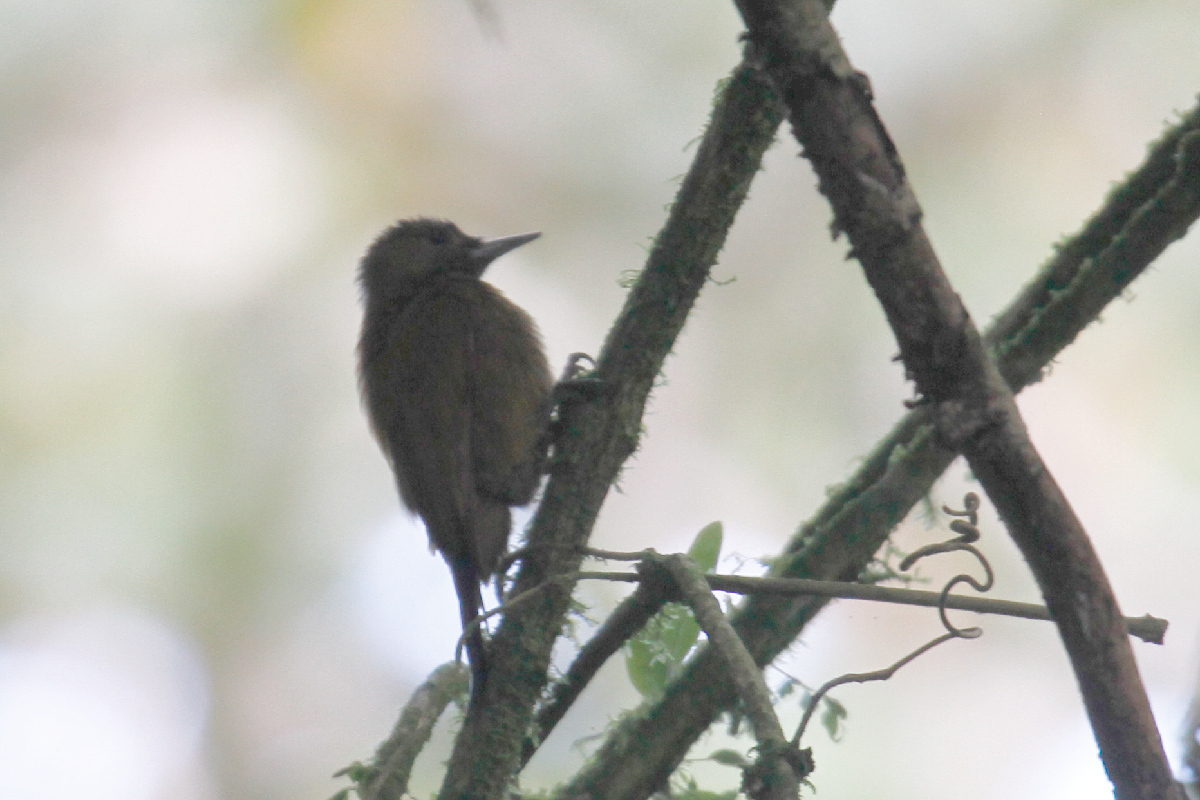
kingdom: Animalia
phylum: Chordata
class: Aves
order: Piciformes
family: Picidae
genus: Leuconotopicus
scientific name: Leuconotopicus fumigatus
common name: Smoky-brown woodpecker
